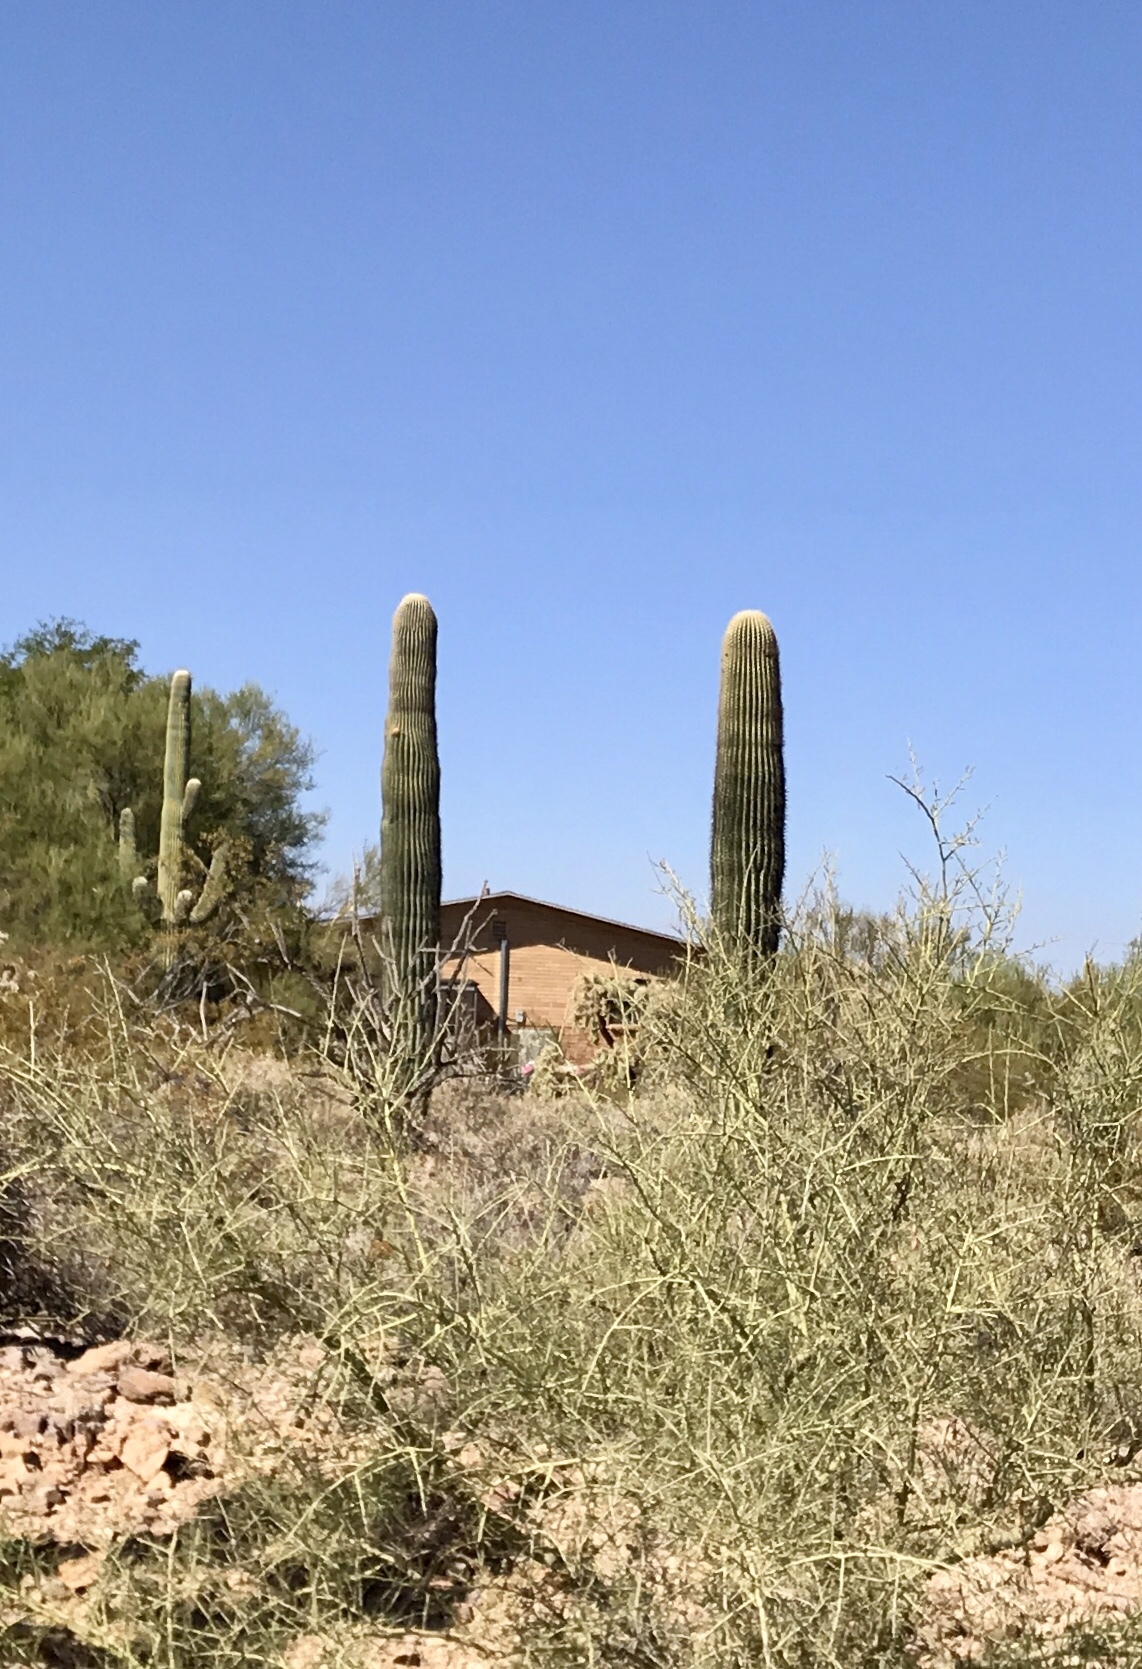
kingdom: Plantae
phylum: Tracheophyta
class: Magnoliopsida
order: Caryophyllales
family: Cactaceae
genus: Carnegiea
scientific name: Carnegiea gigantea
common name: Saguaro
